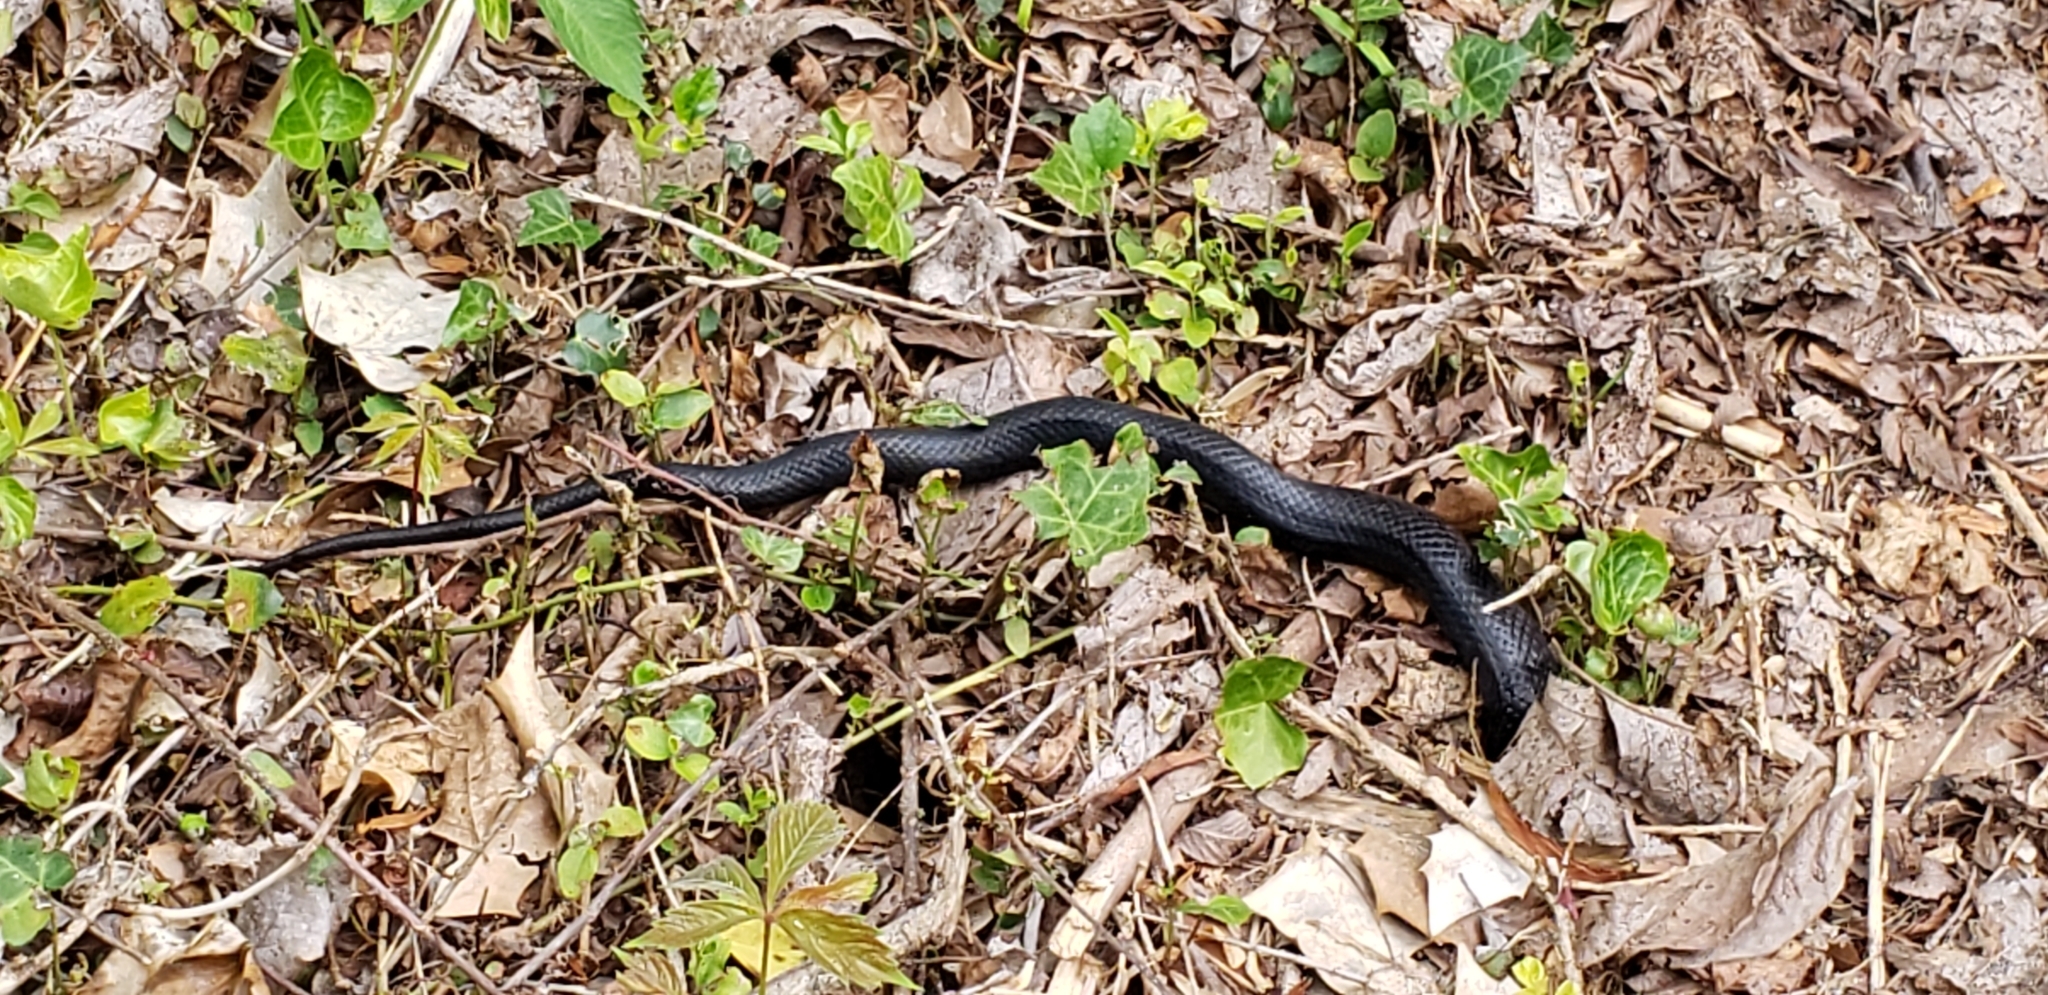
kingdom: Animalia
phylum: Chordata
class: Squamata
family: Colubridae
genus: Pantherophis
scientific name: Pantherophis alleghaniensis
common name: Eastern rat snake
